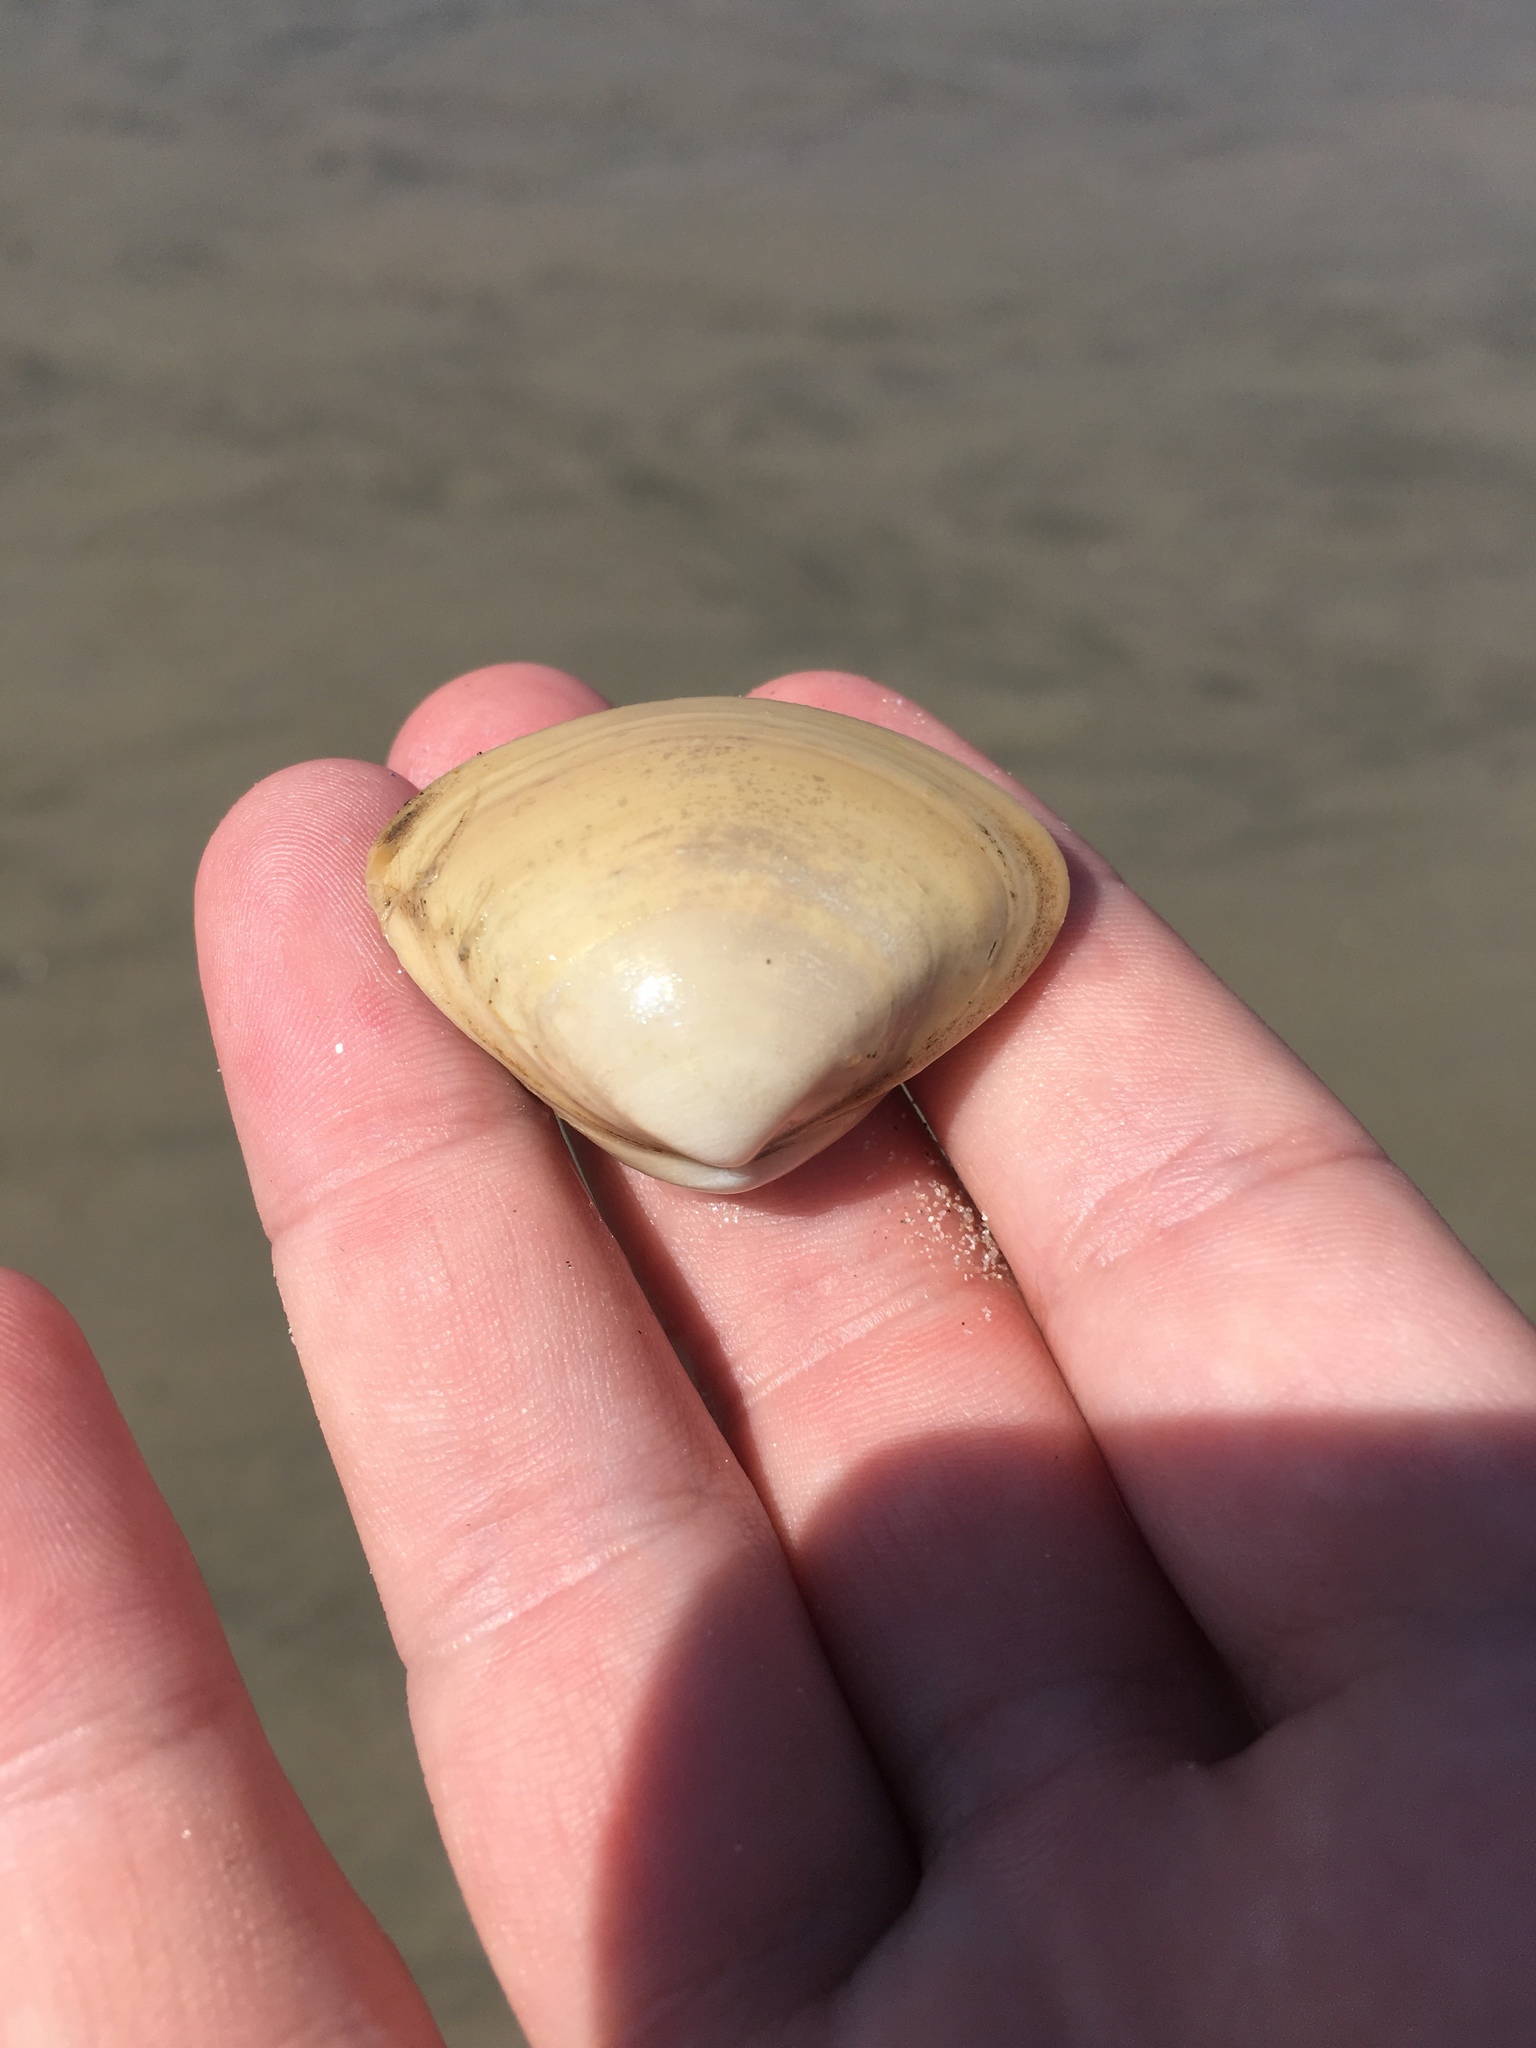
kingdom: Animalia
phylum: Mollusca
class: Bivalvia
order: Venerida
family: Mactridae
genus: Spisula
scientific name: Spisula solidissima
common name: Atlantic surf clam
